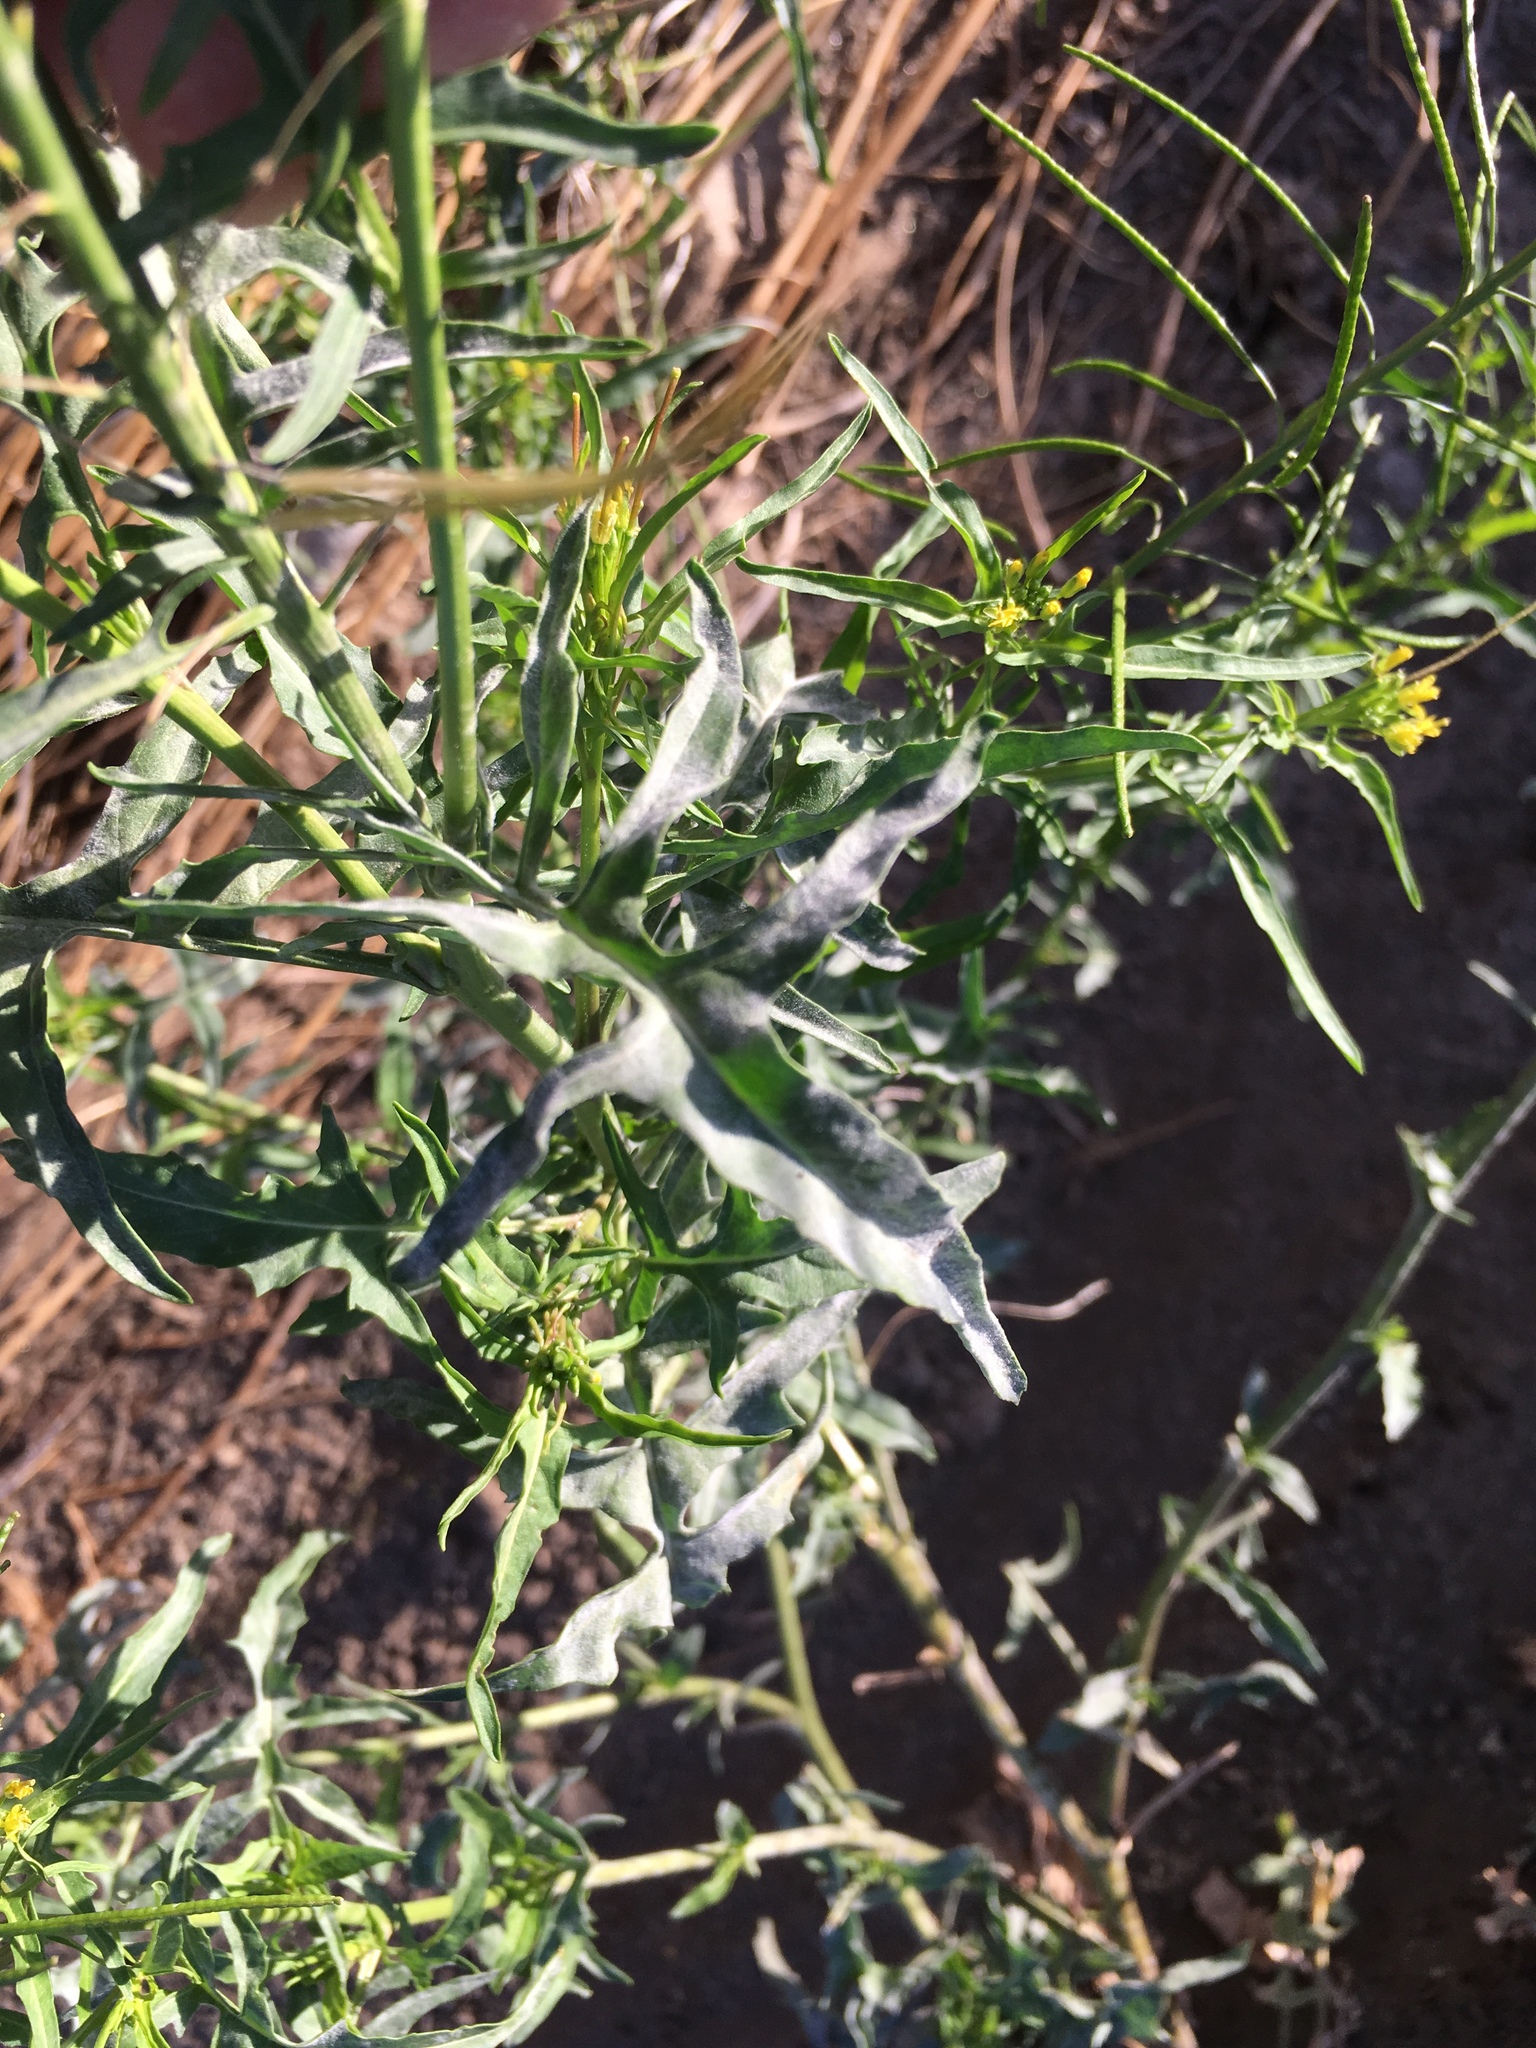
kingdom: Plantae
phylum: Tracheophyta
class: Magnoliopsida
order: Brassicales
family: Brassicaceae
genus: Sisymbrium
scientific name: Sisymbrium irio
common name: London rocket
